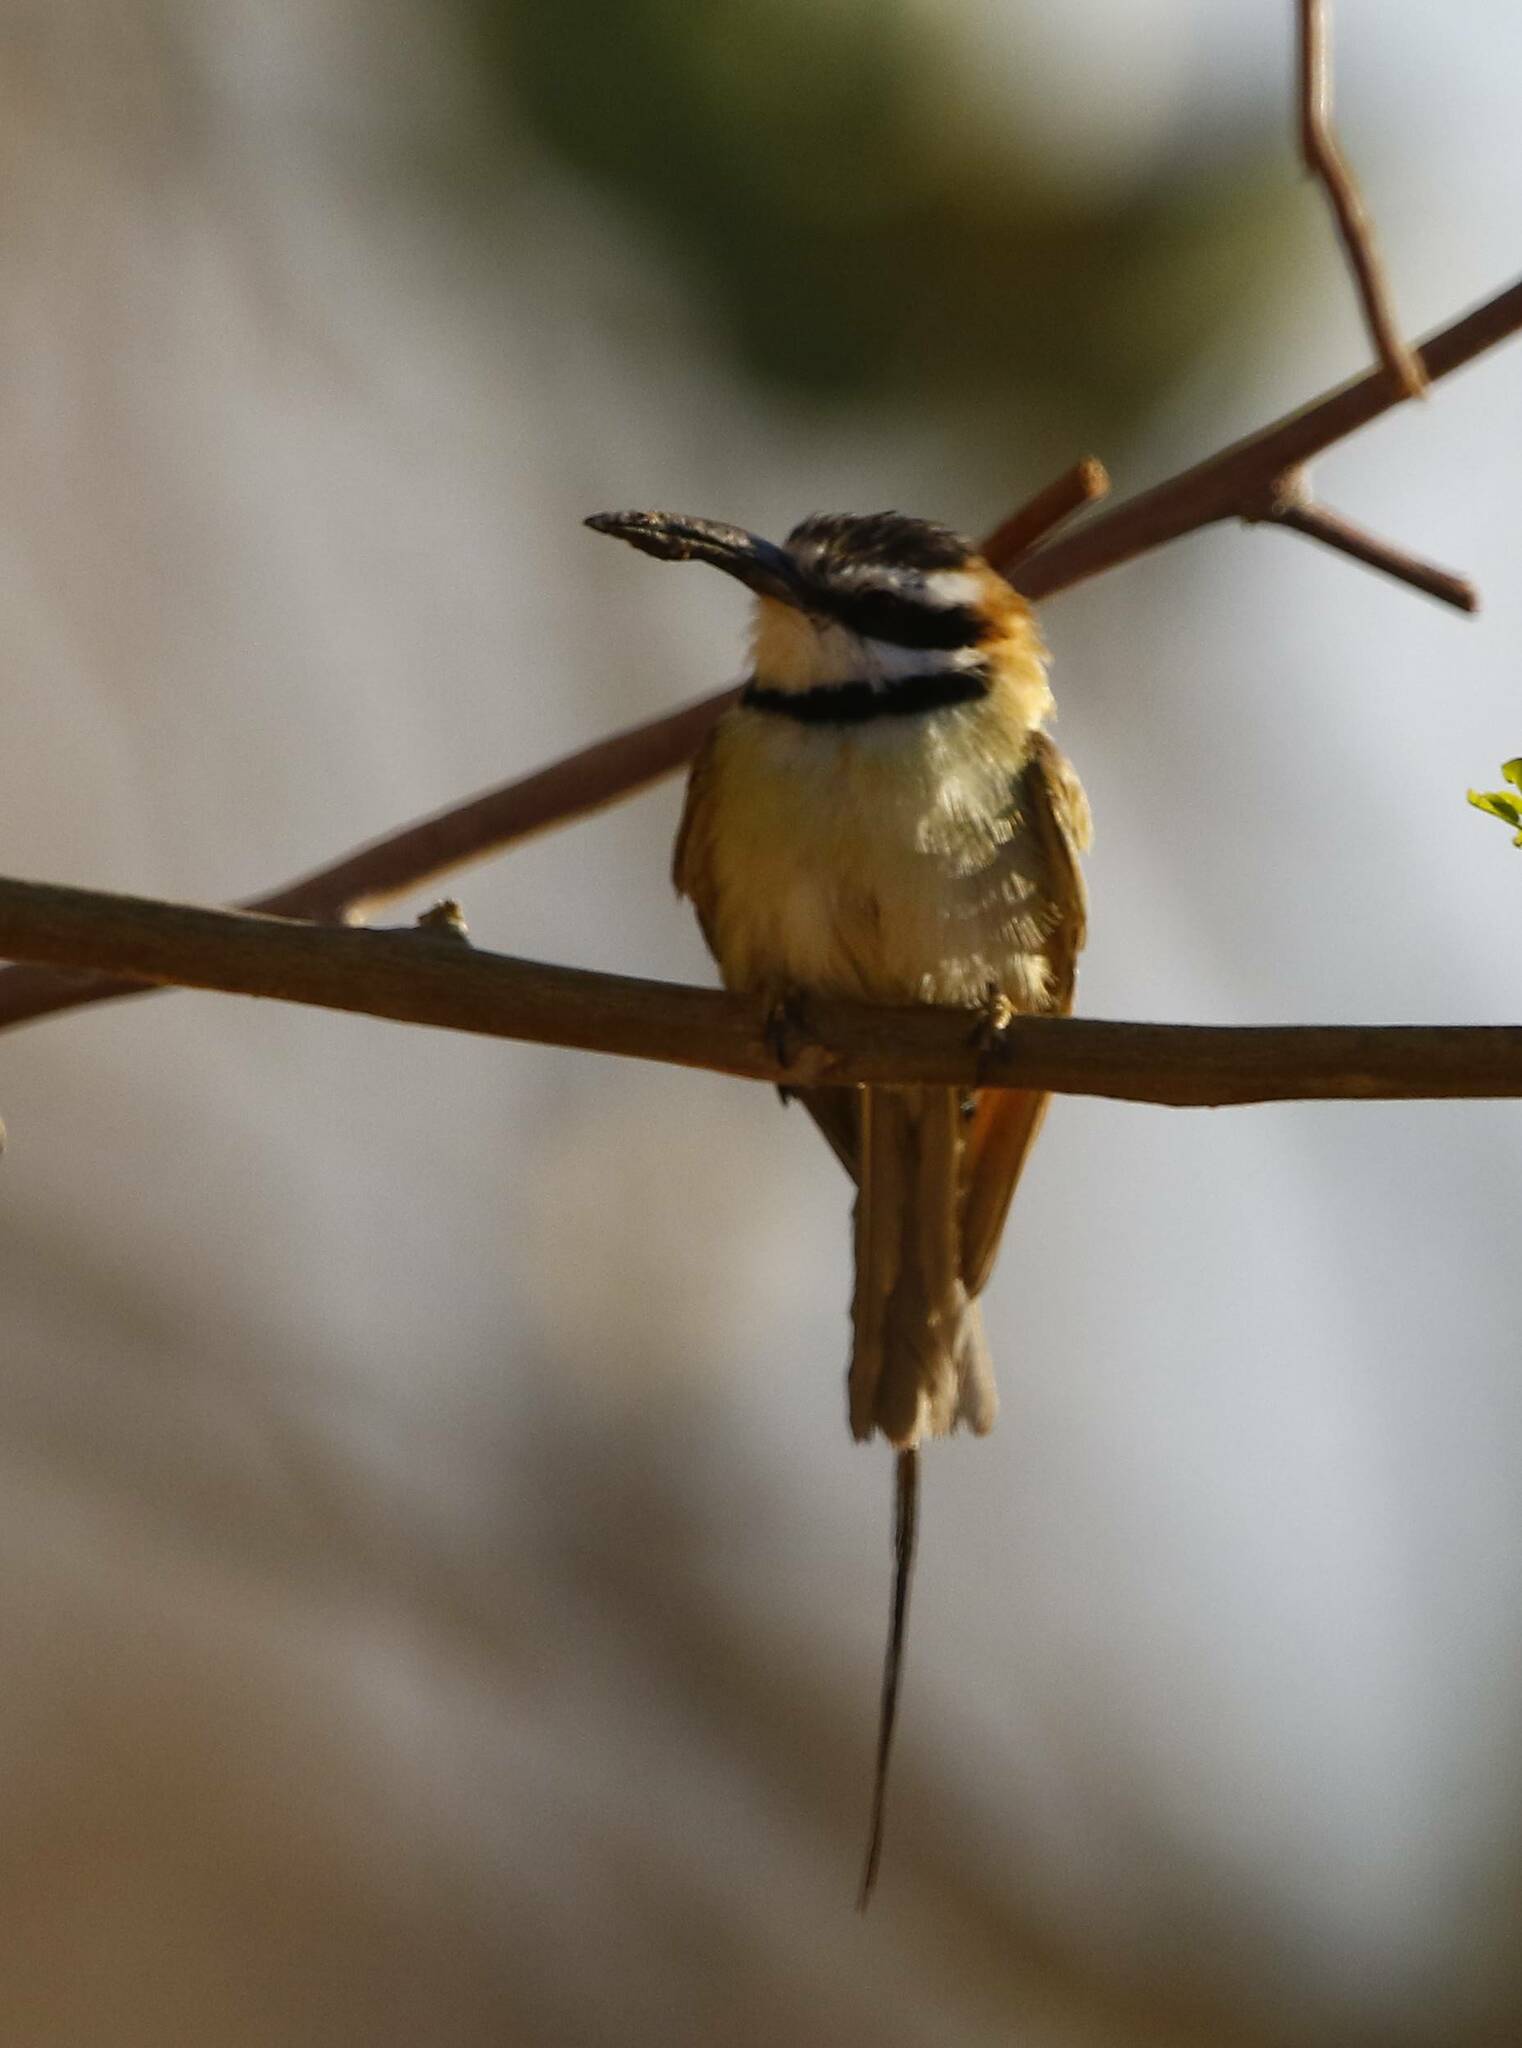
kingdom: Animalia
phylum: Chordata
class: Aves
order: Coraciiformes
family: Meropidae
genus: Merops
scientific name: Merops albicollis
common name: White-throated bee-eater
